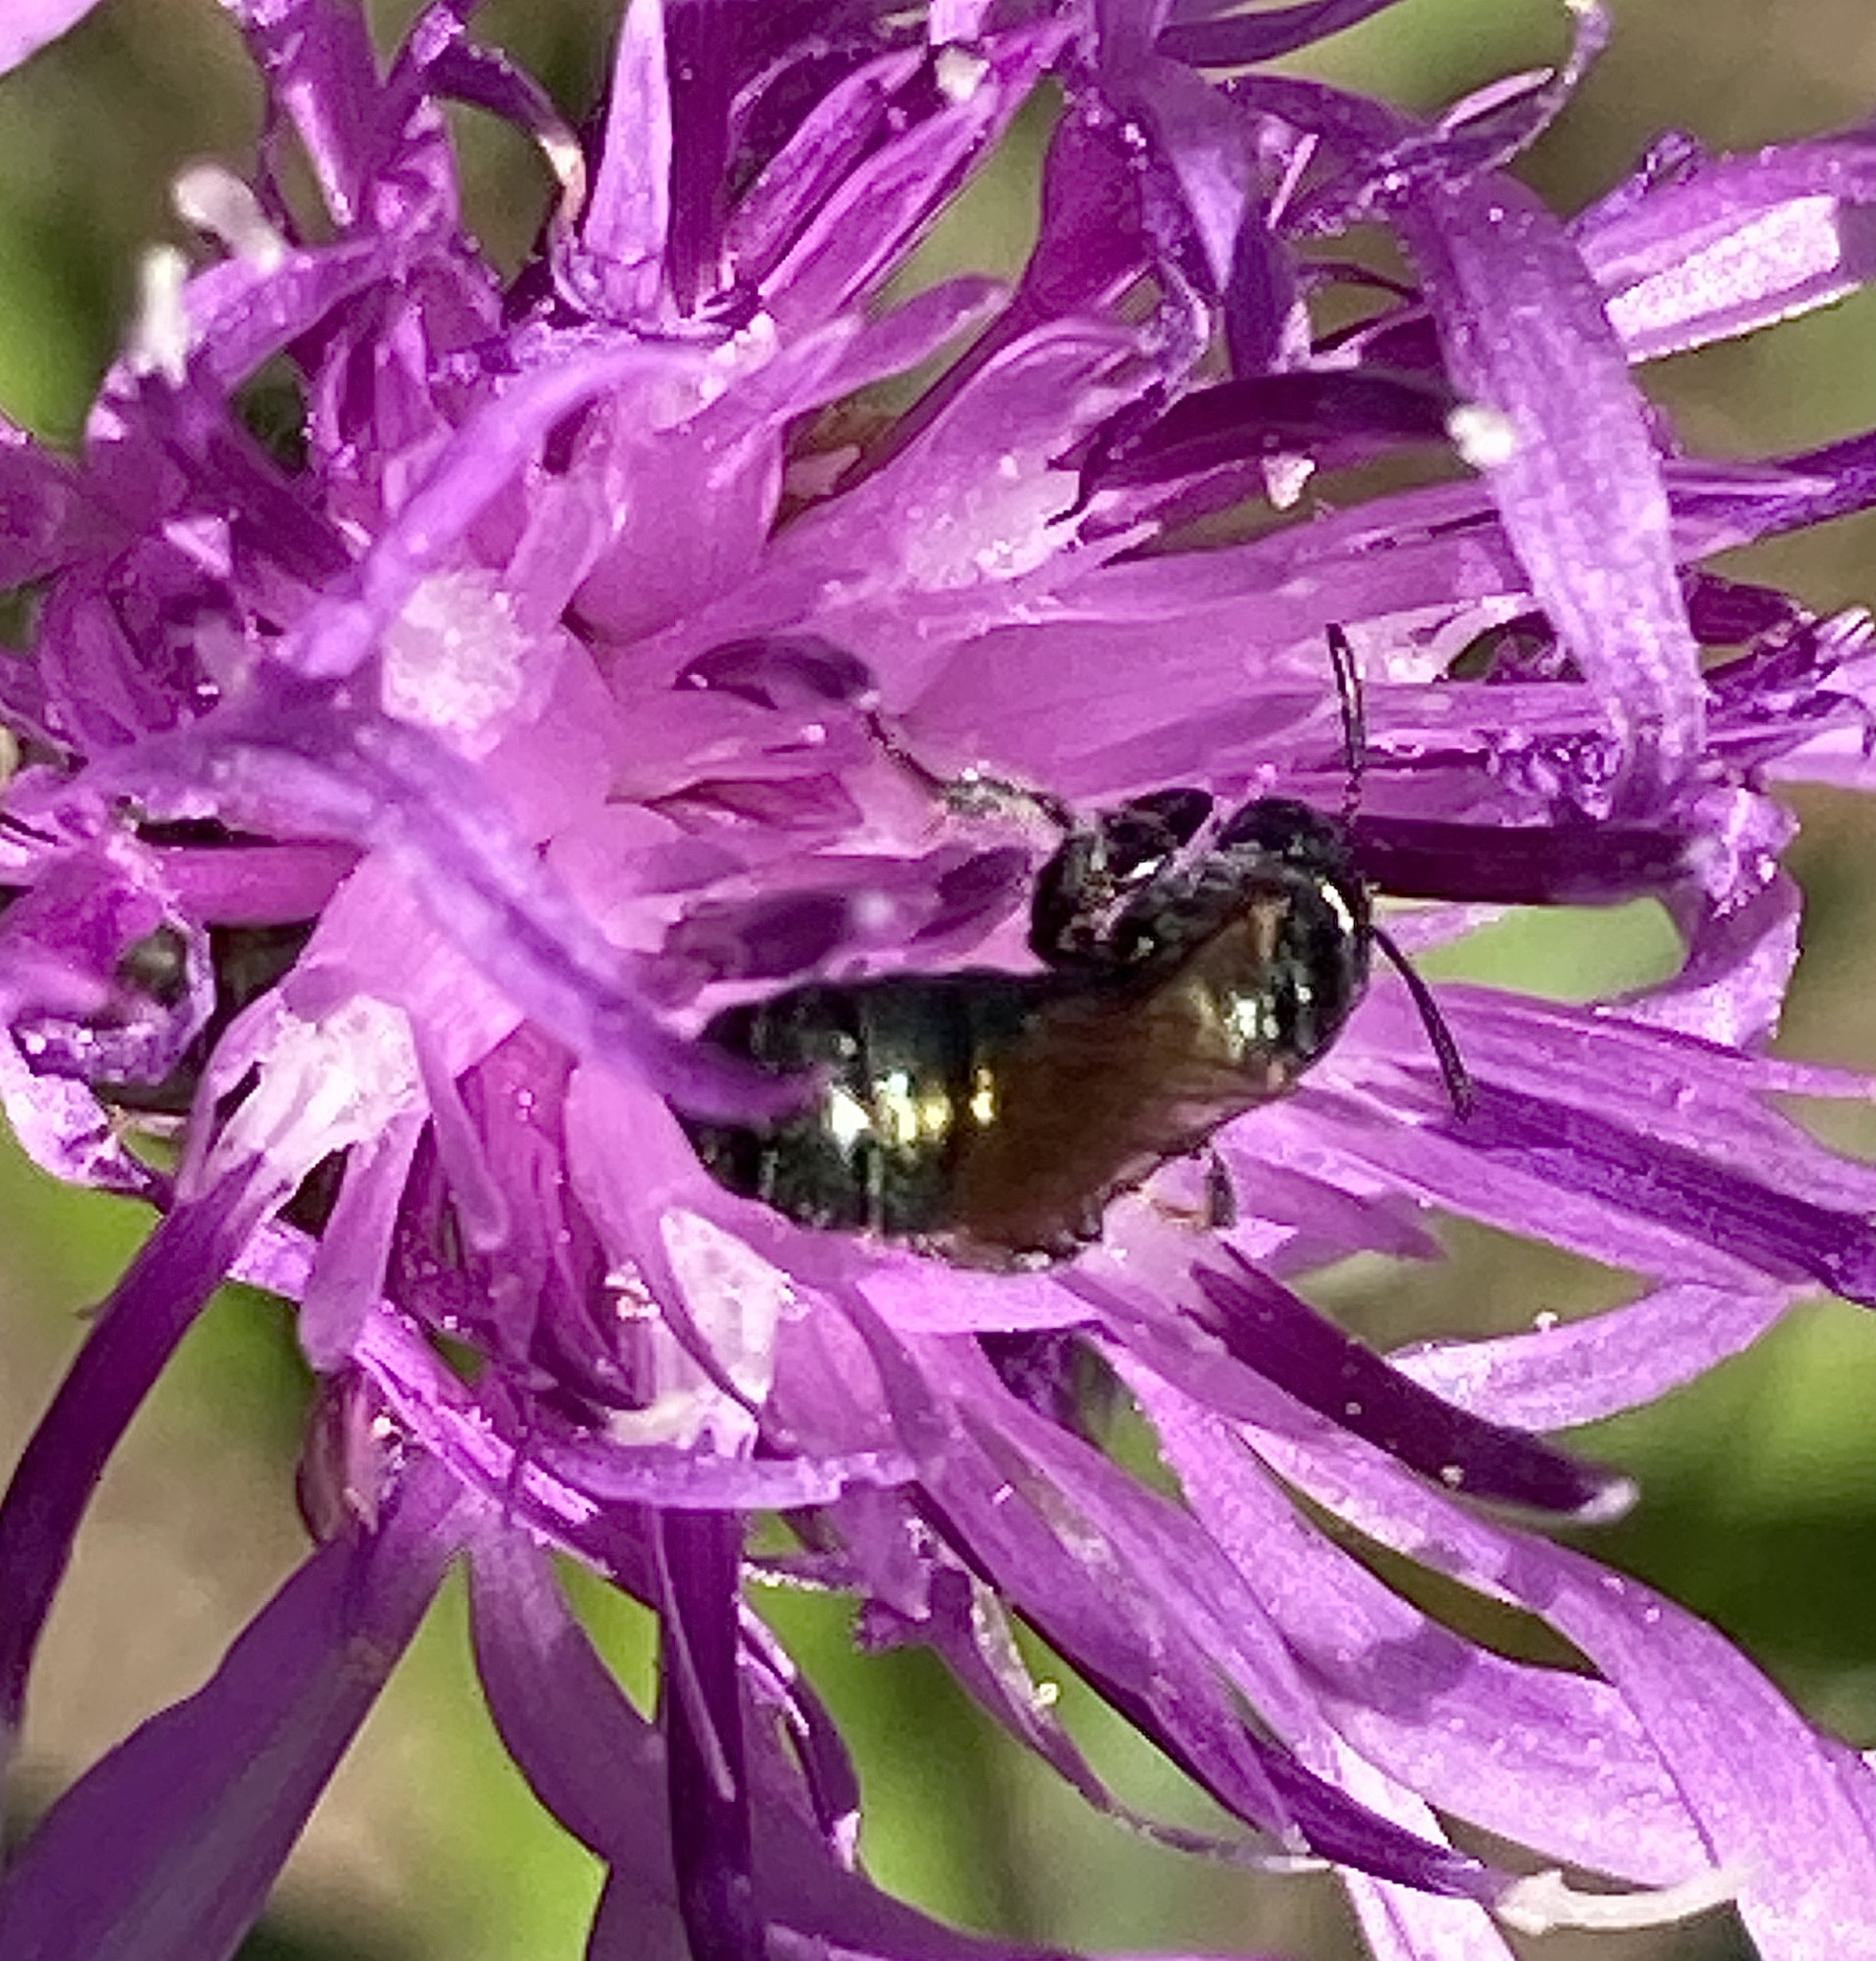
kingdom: Animalia
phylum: Arthropoda
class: Insecta
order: Hymenoptera
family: Apidae
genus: Zadontomerus
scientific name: Zadontomerus
